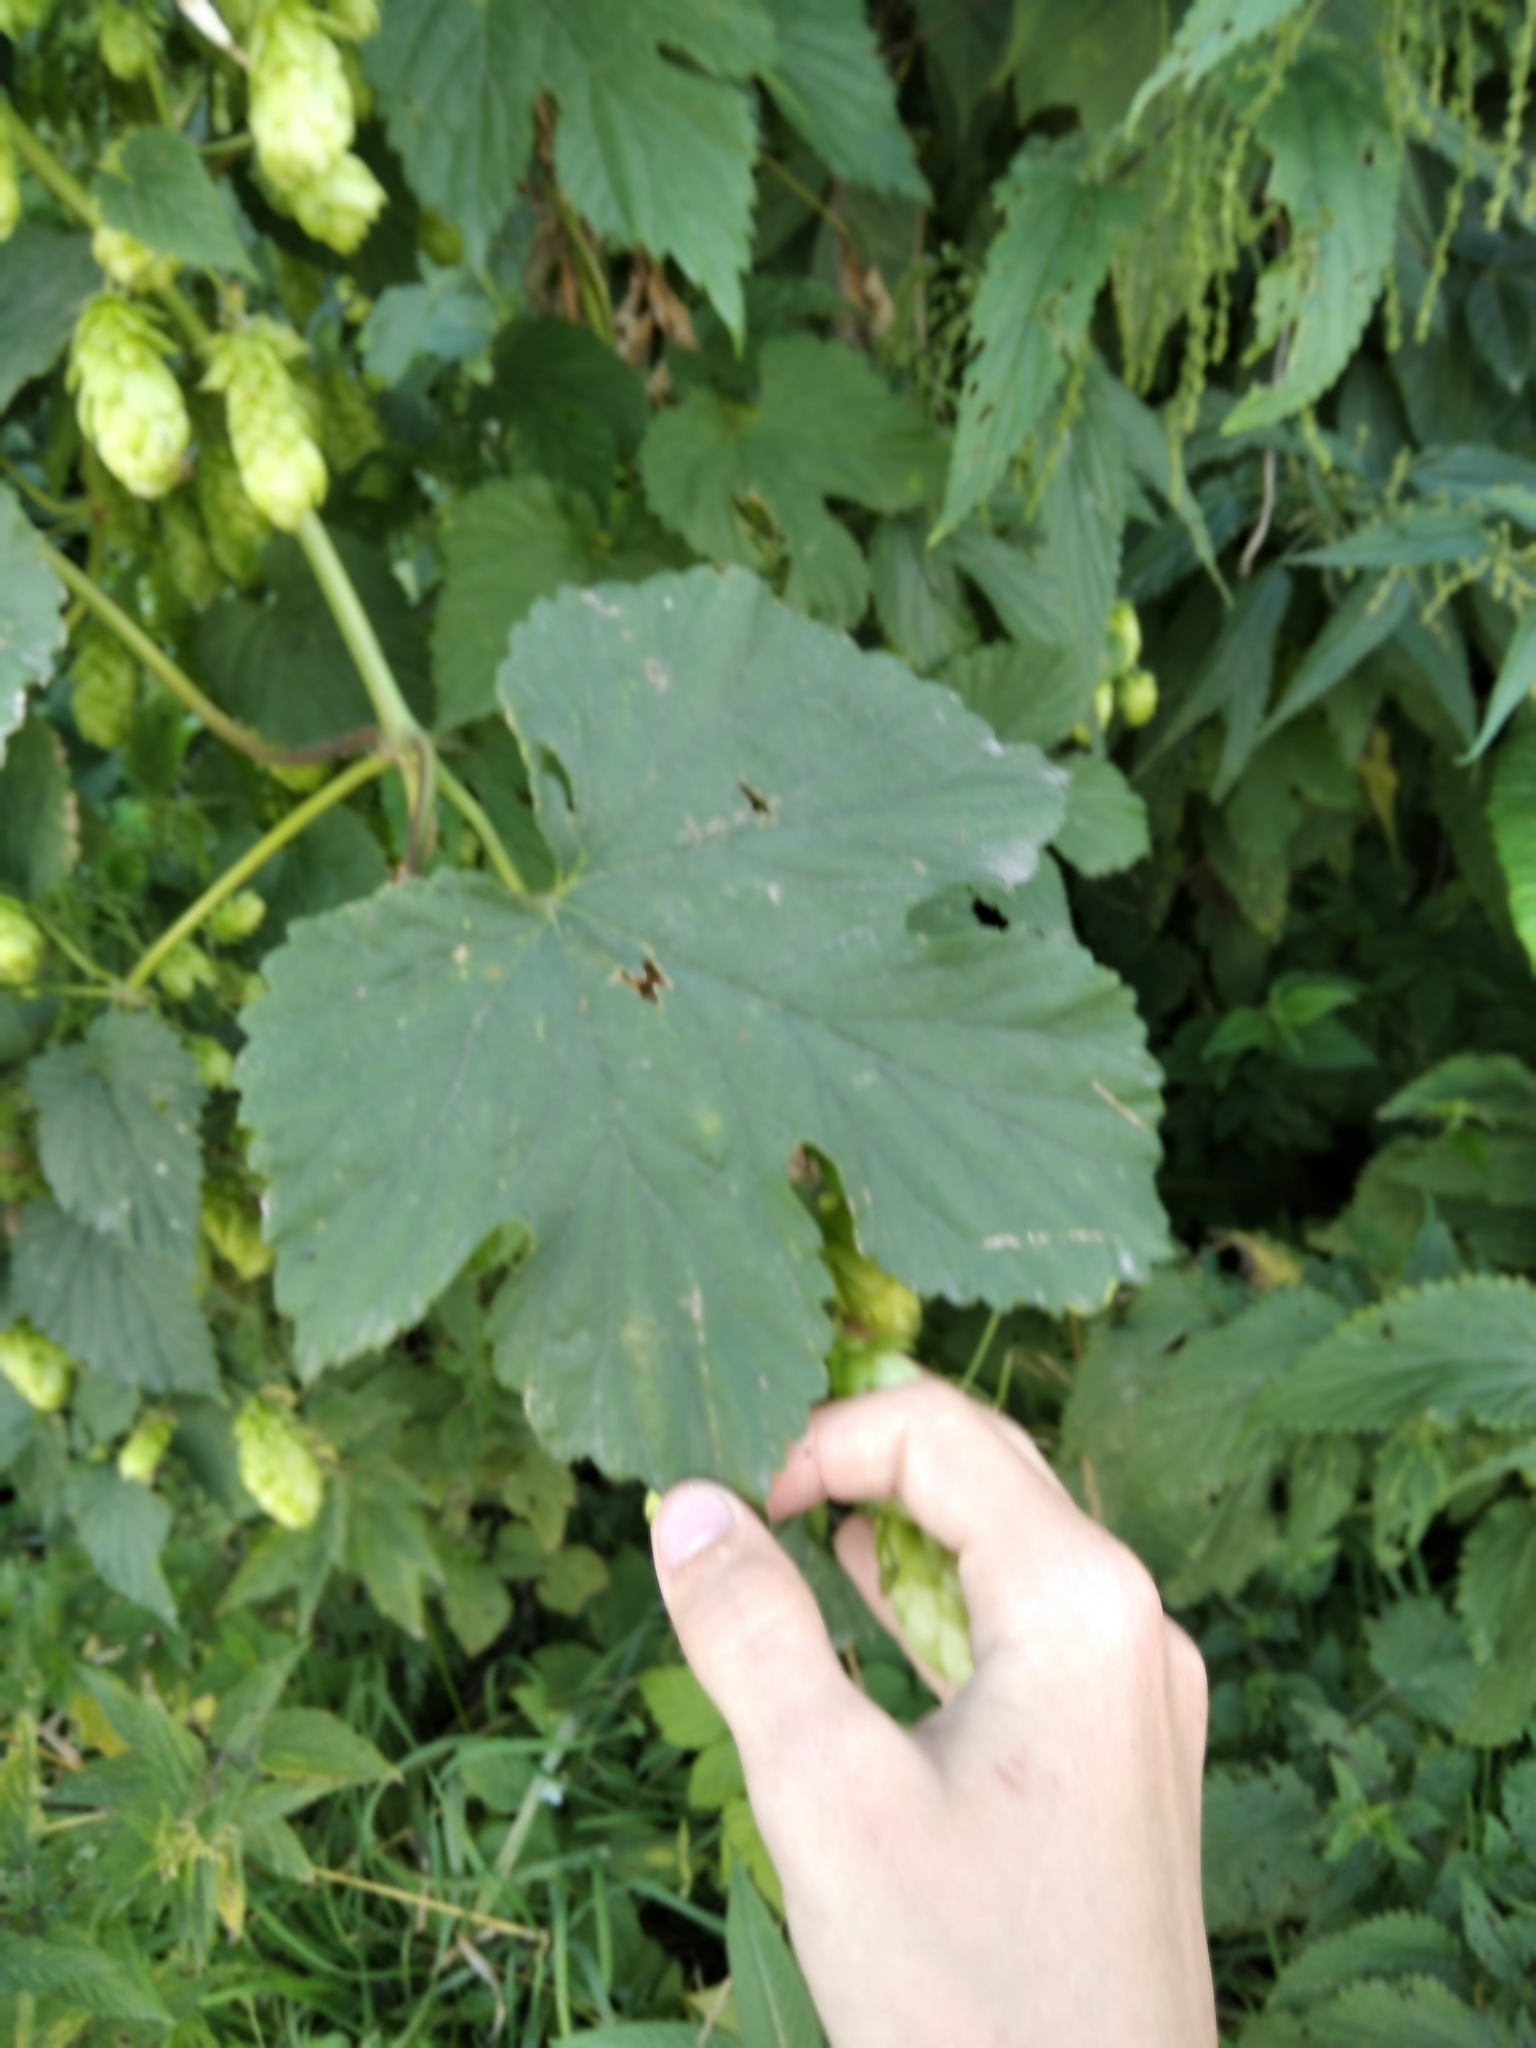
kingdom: Plantae
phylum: Tracheophyta
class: Magnoliopsida
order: Rosales
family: Cannabaceae
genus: Humulus
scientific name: Humulus lupulus
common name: Hop
